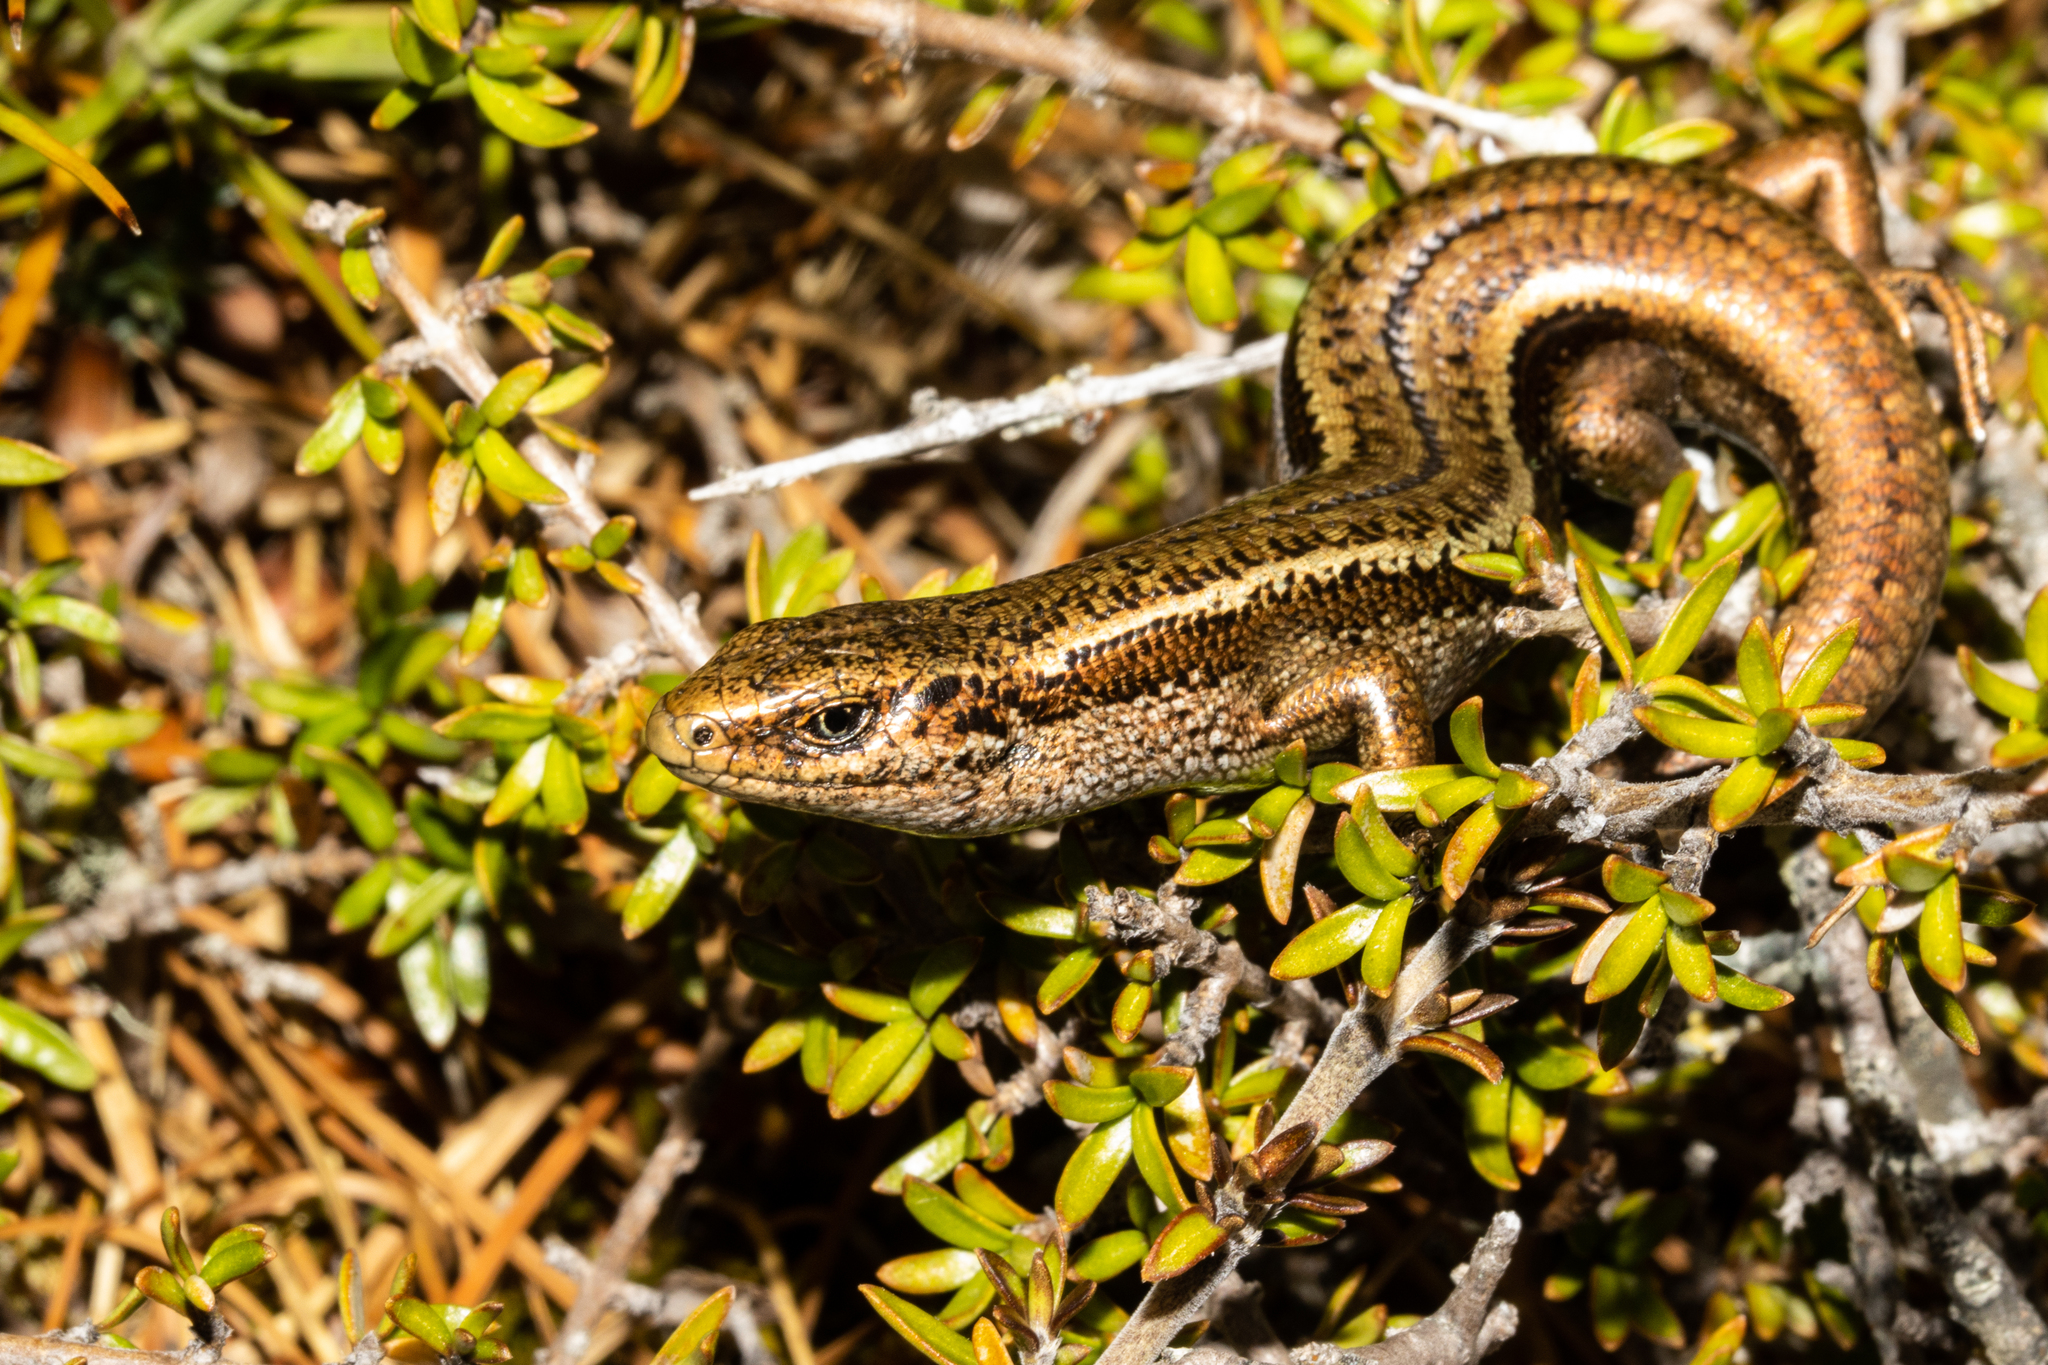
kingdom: Animalia
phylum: Chordata
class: Squamata
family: Scincidae
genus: Oligosoma
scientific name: Oligosoma burganae
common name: Burgan skink
